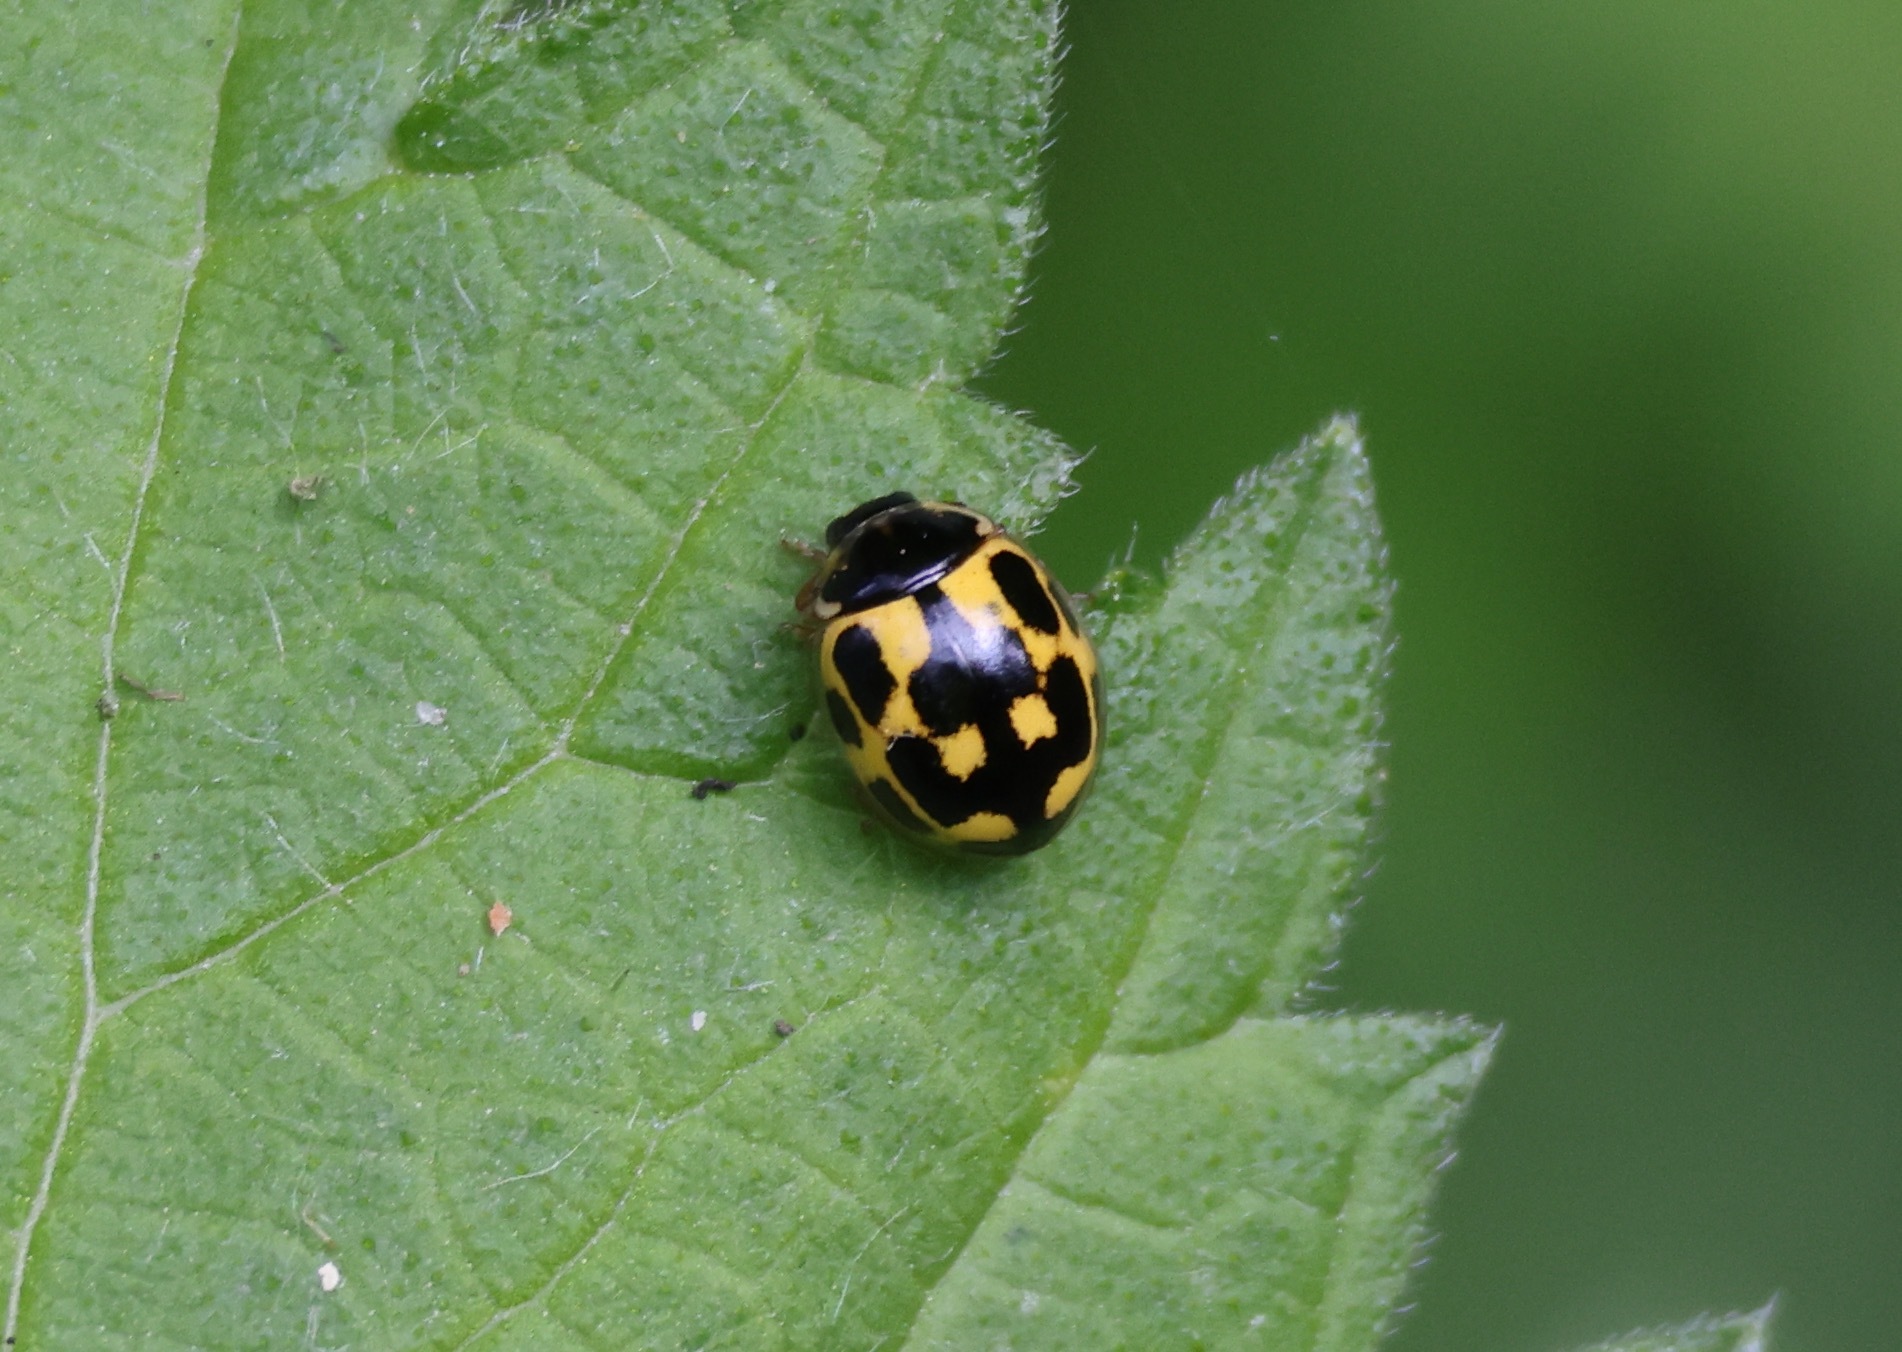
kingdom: Animalia
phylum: Arthropoda
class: Insecta
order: Coleoptera
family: Coccinellidae
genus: Propylaea
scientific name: Propylaea quatuordecimpunctata
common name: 14-spotted ladybird beetle
